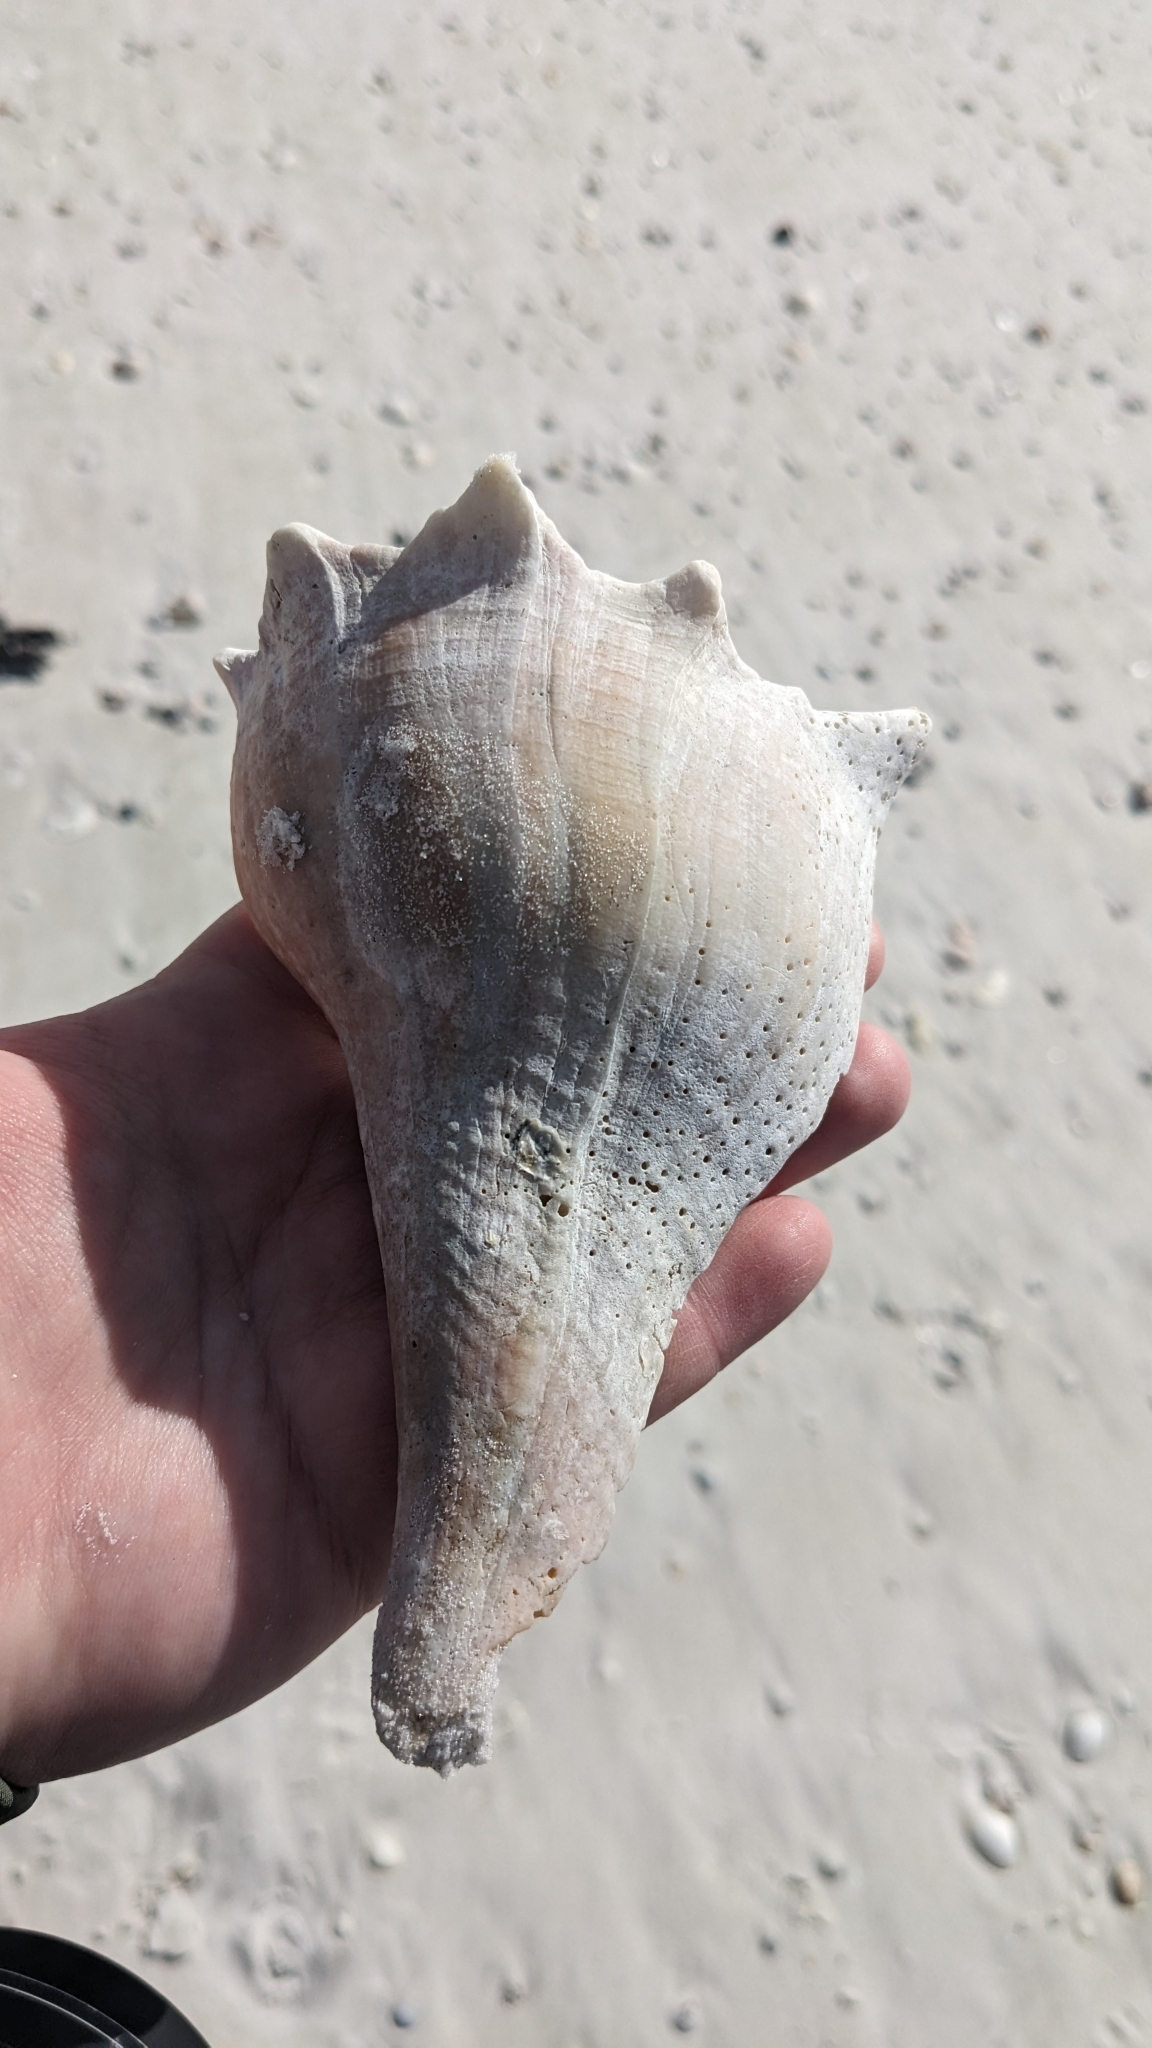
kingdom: Animalia
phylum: Mollusca
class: Gastropoda
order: Neogastropoda
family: Busyconidae
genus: Sinistrofulgur
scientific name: Sinistrofulgur sinistrum
